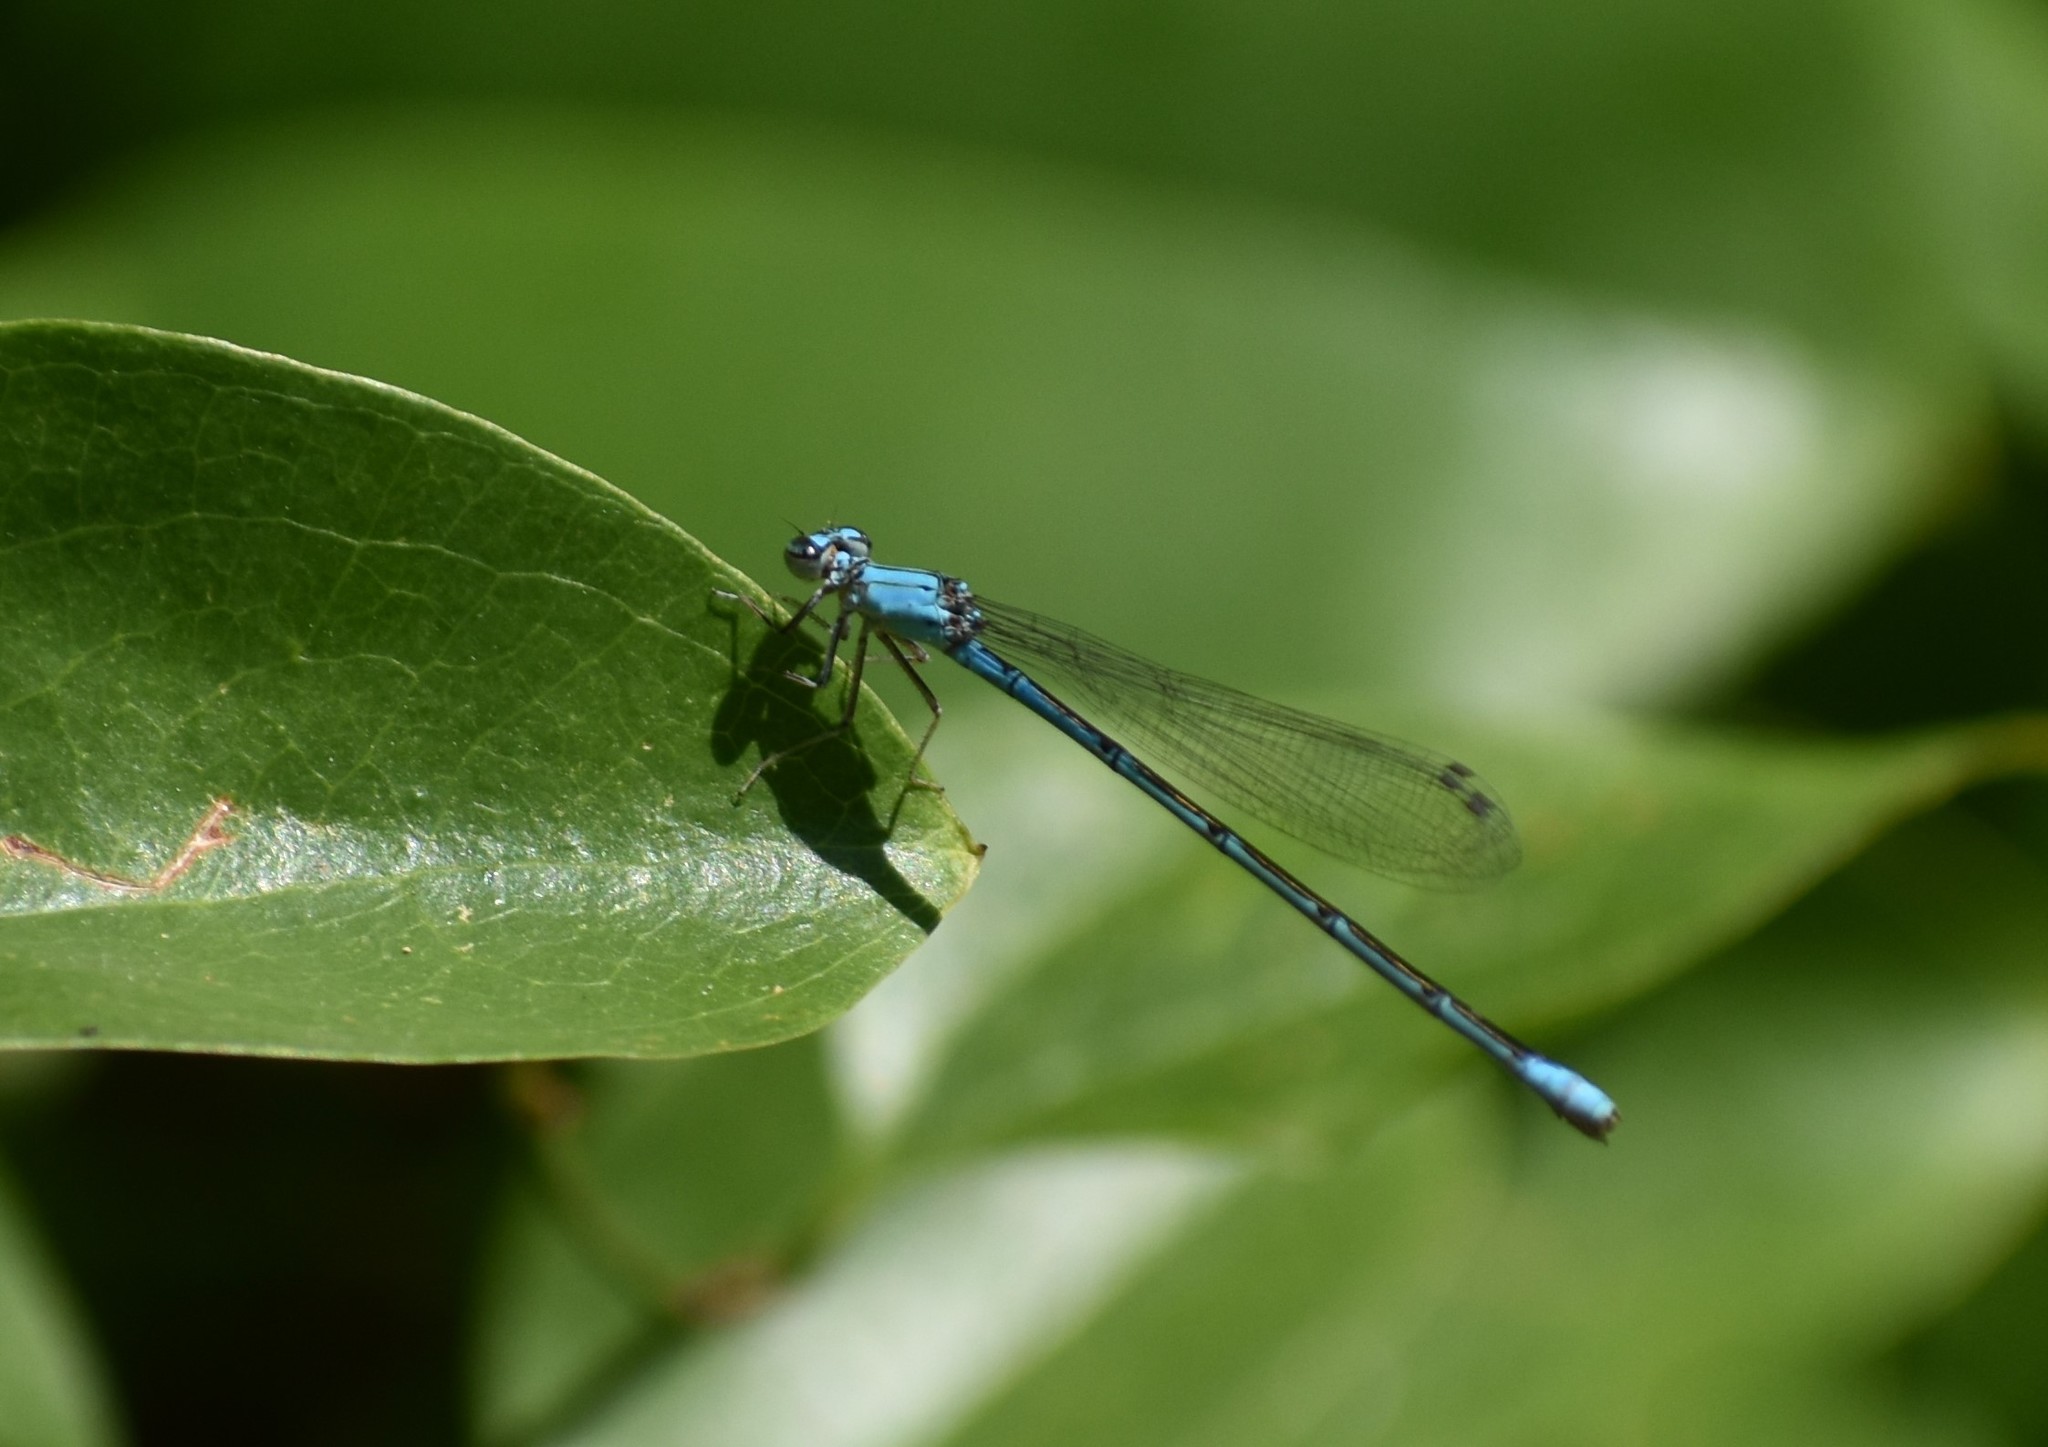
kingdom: Animalia
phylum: Arthropoda
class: Insecta
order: Odonata
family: Coenagrionidae
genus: Enallagma
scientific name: Enallagma traviatum
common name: Slender bluet
